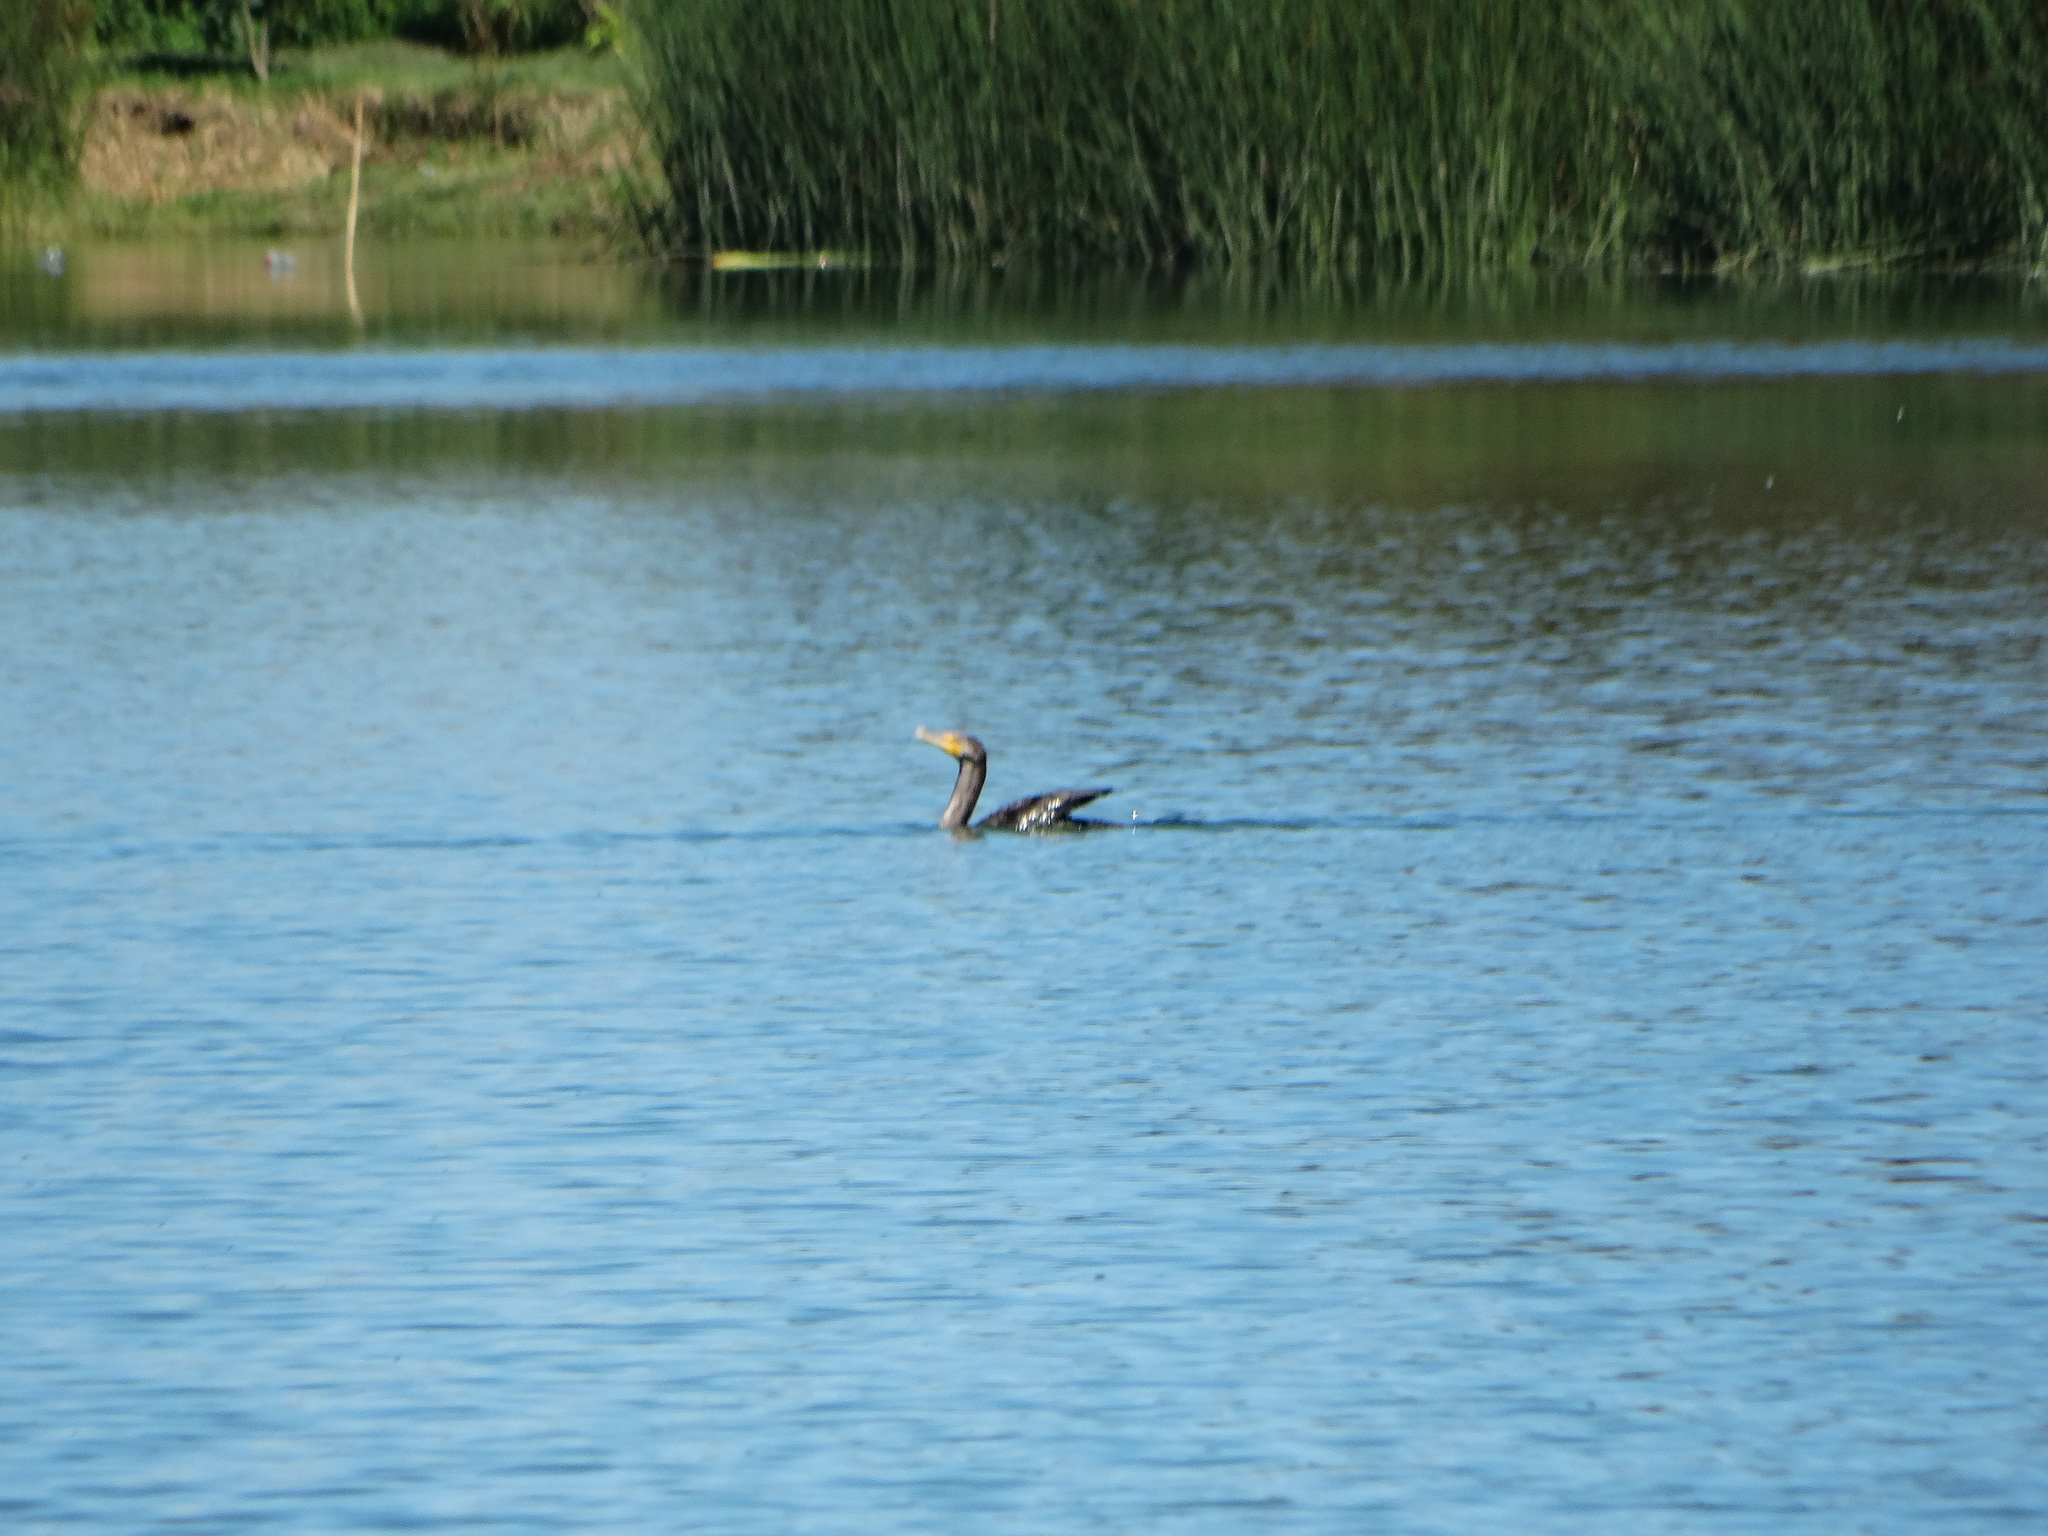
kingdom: Animalia
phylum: Chordata
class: Aves
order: Suliformes
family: Phalacrocoracidae
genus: Phalacrocorax
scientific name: Phalacrocorax auritus
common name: Double-crested cormorant
